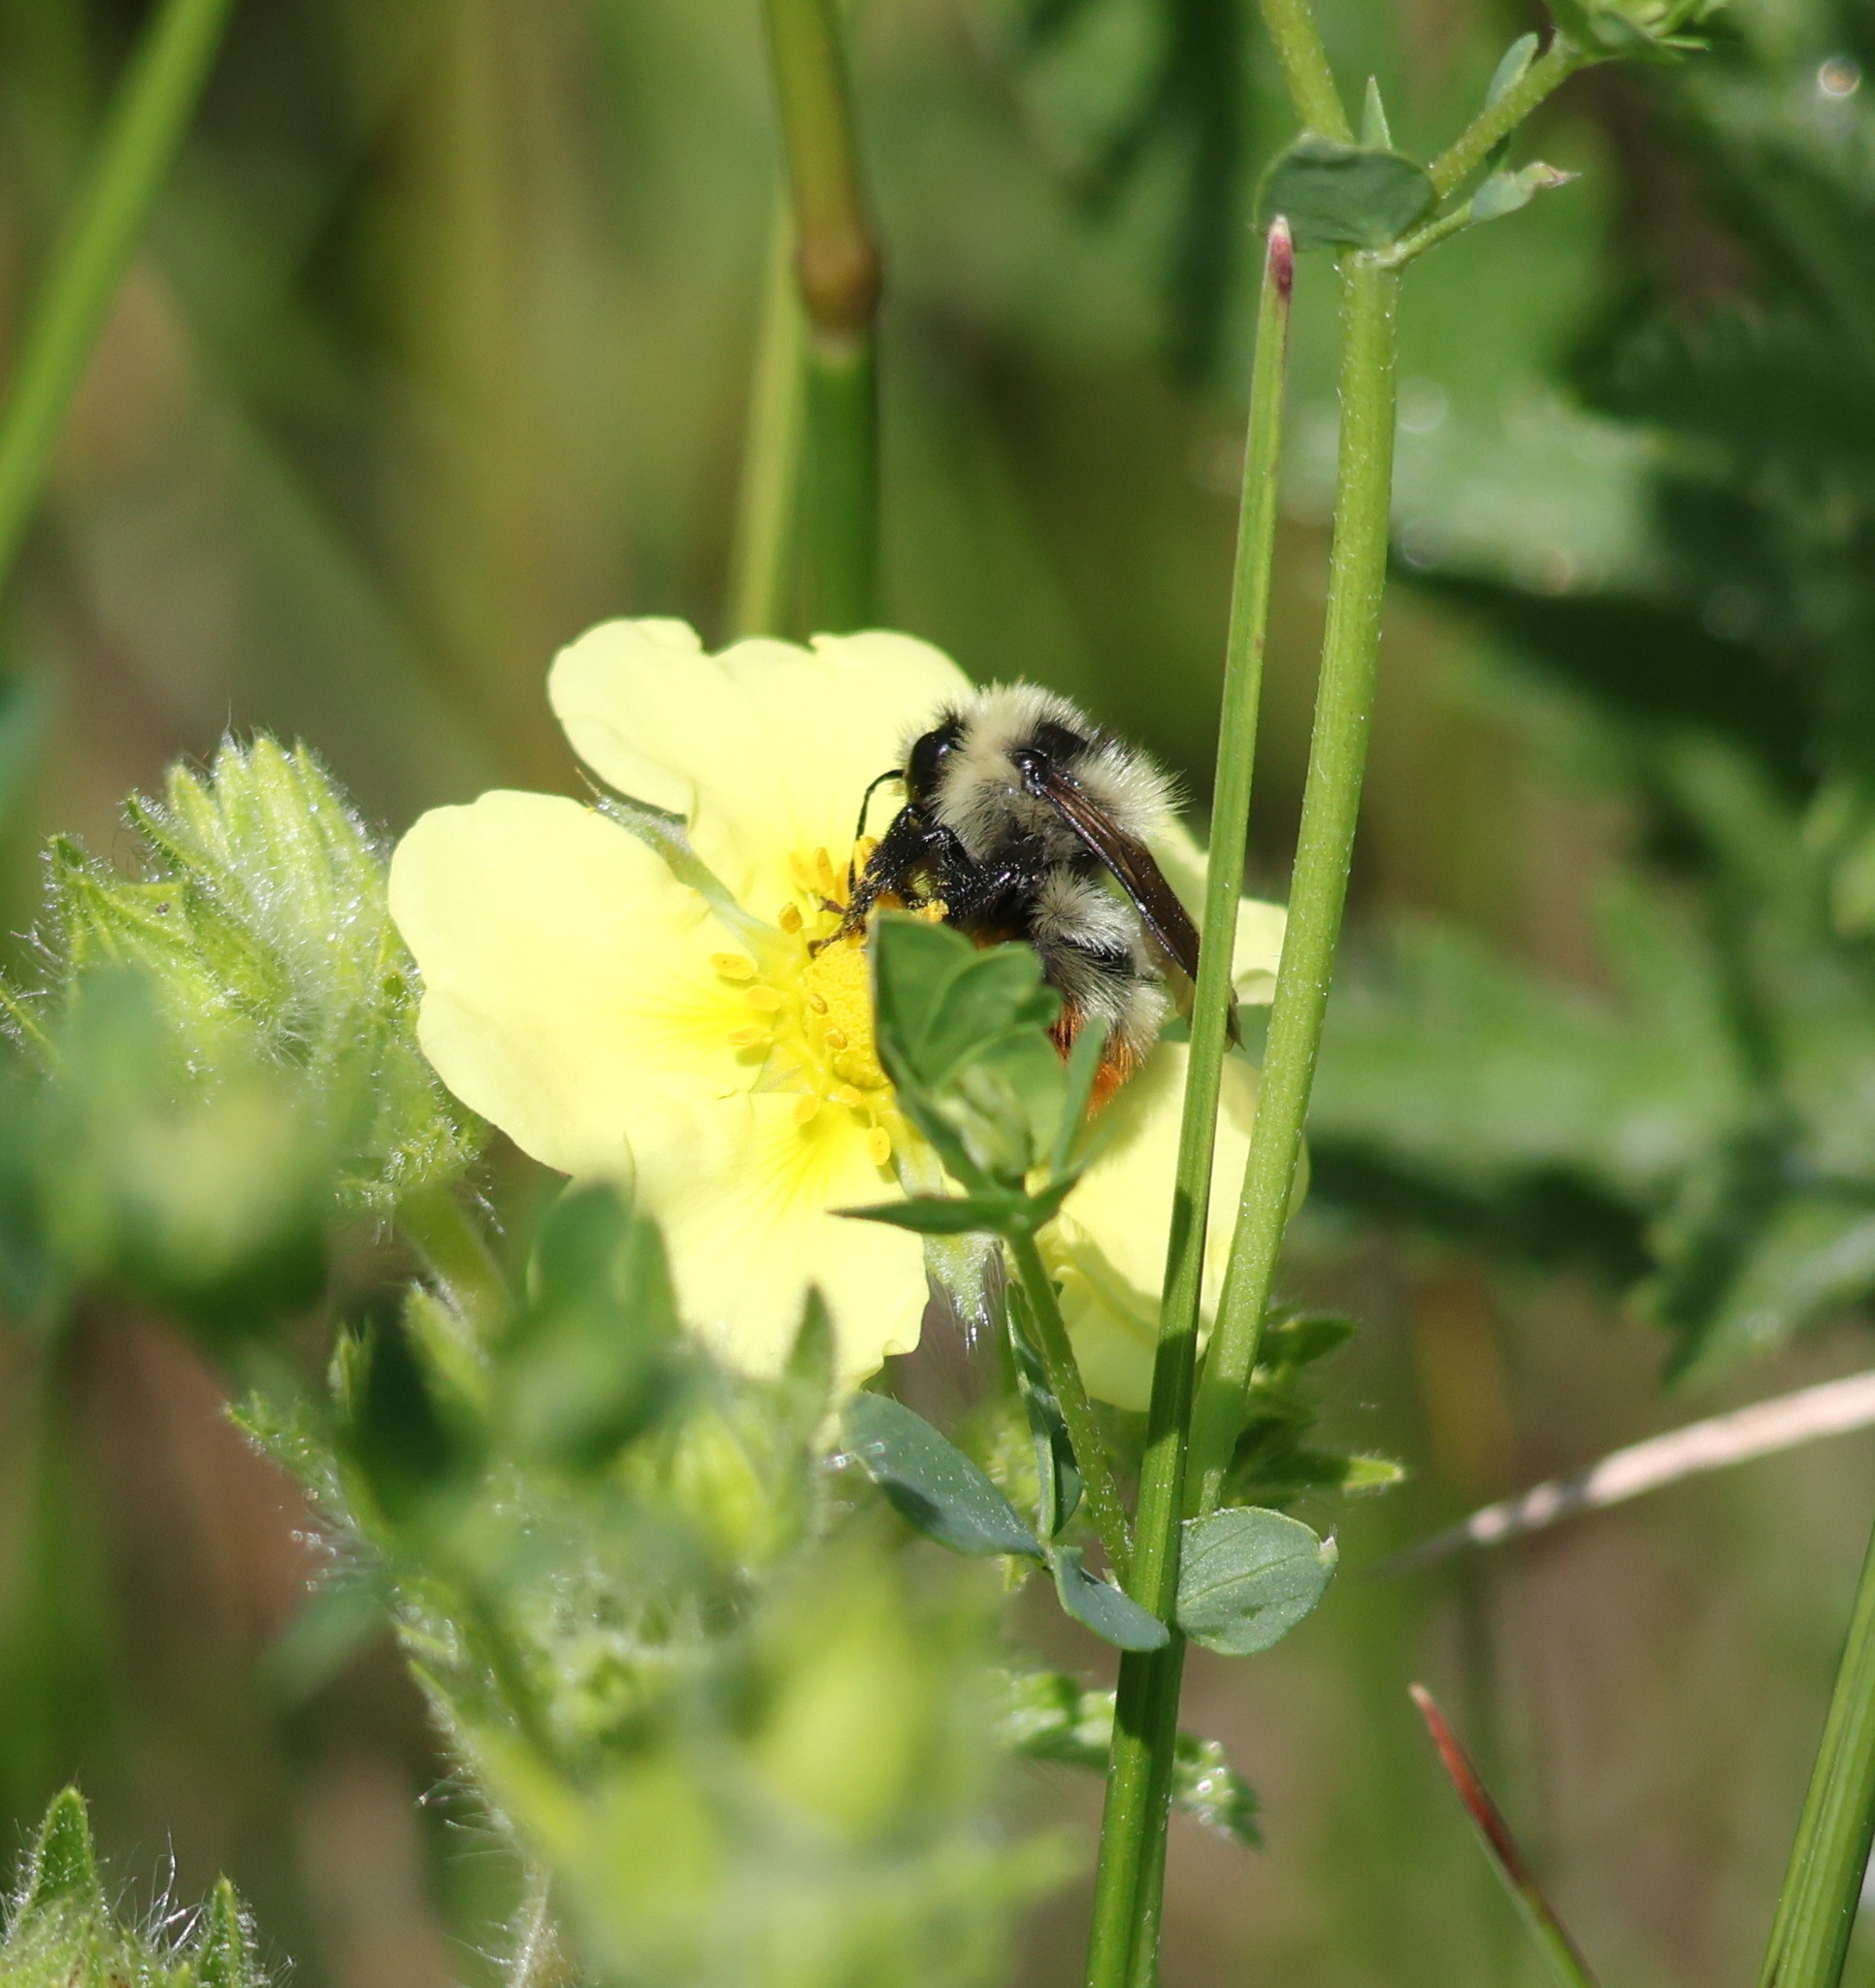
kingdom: Animalia
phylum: Arthropoda
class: Insecta
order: Hymenoptera
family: Apidae
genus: Bombus
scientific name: Bombus rufocinctus
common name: Red-belted bumble bee
